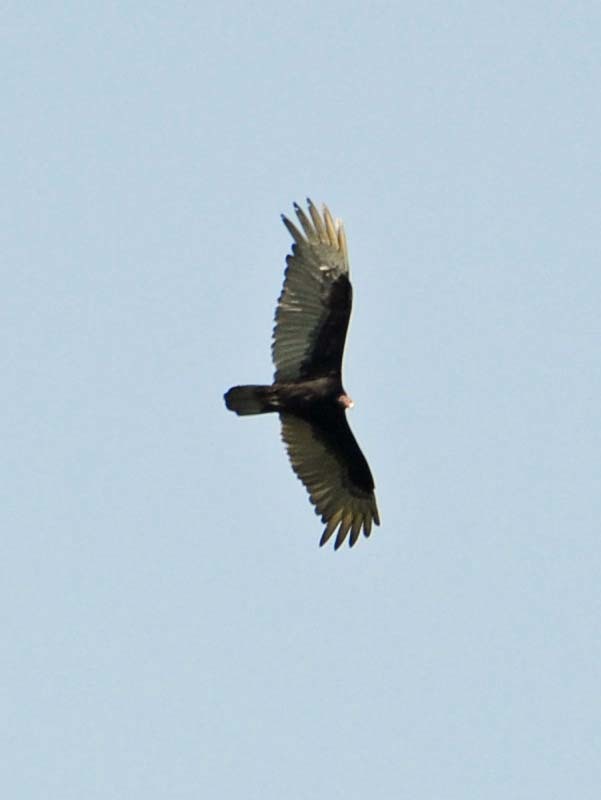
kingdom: Animalia
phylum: Chordata
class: Aves
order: Accipitriformes
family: Cathartidae
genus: Cathartes
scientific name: Cathartes aura
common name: Turkey vulture
